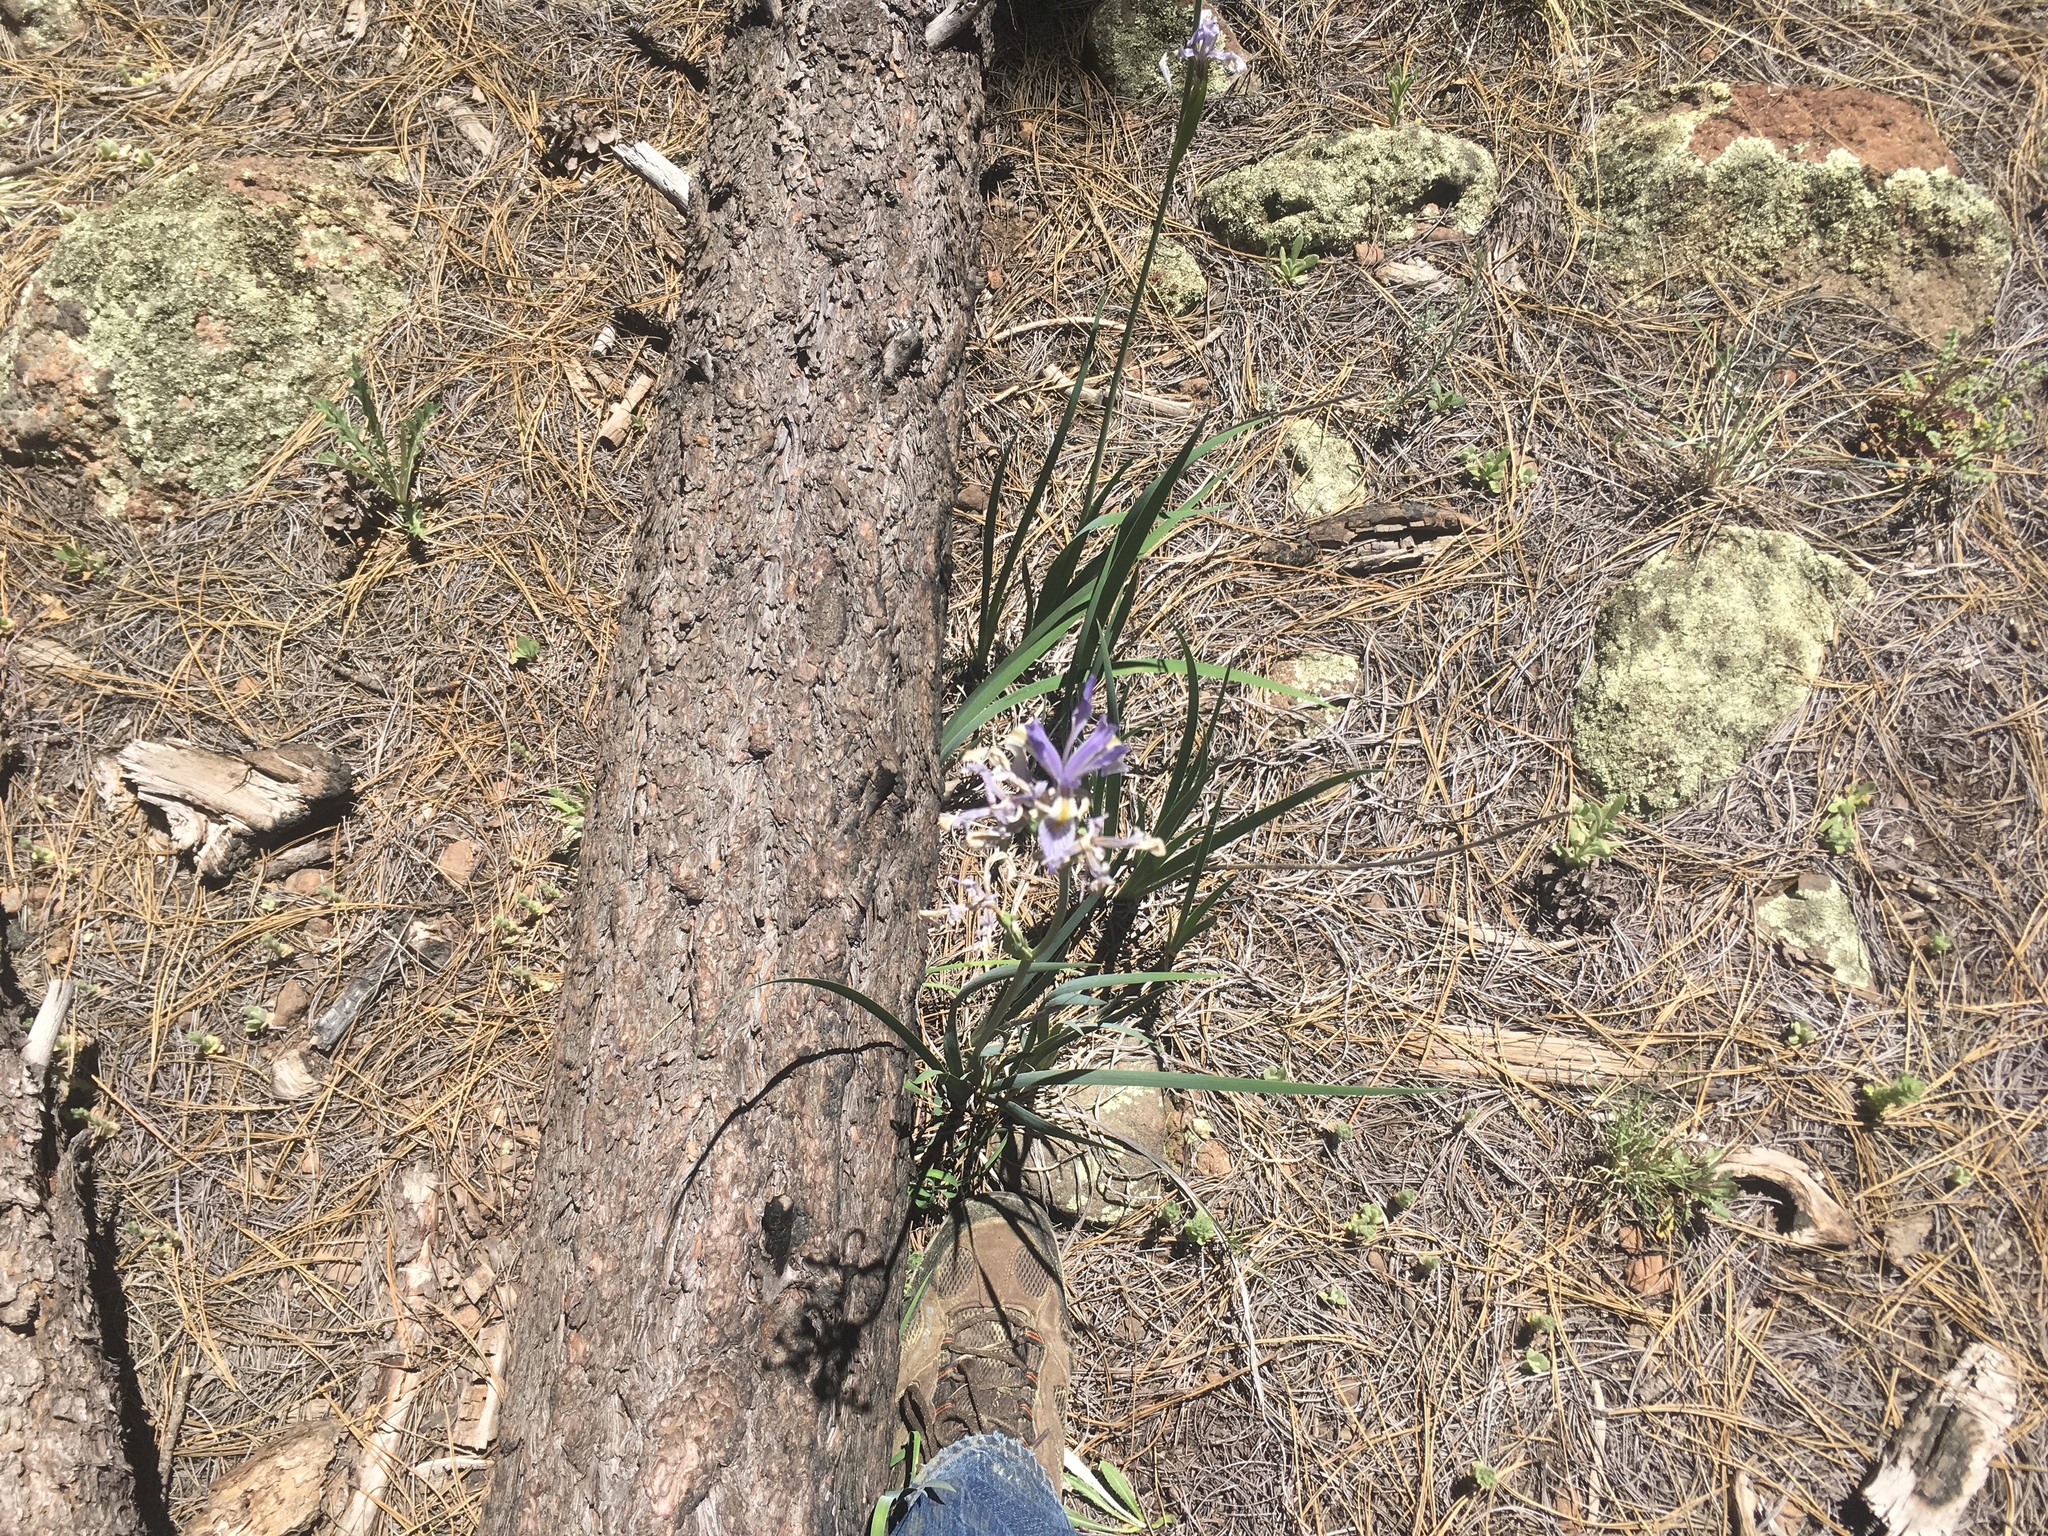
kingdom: Plantae
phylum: Tracheophyta
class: Liliopsida
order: Asparagales
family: Iridaceae
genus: Iris
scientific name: Iris missouriensis
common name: Rocky mountain iris
